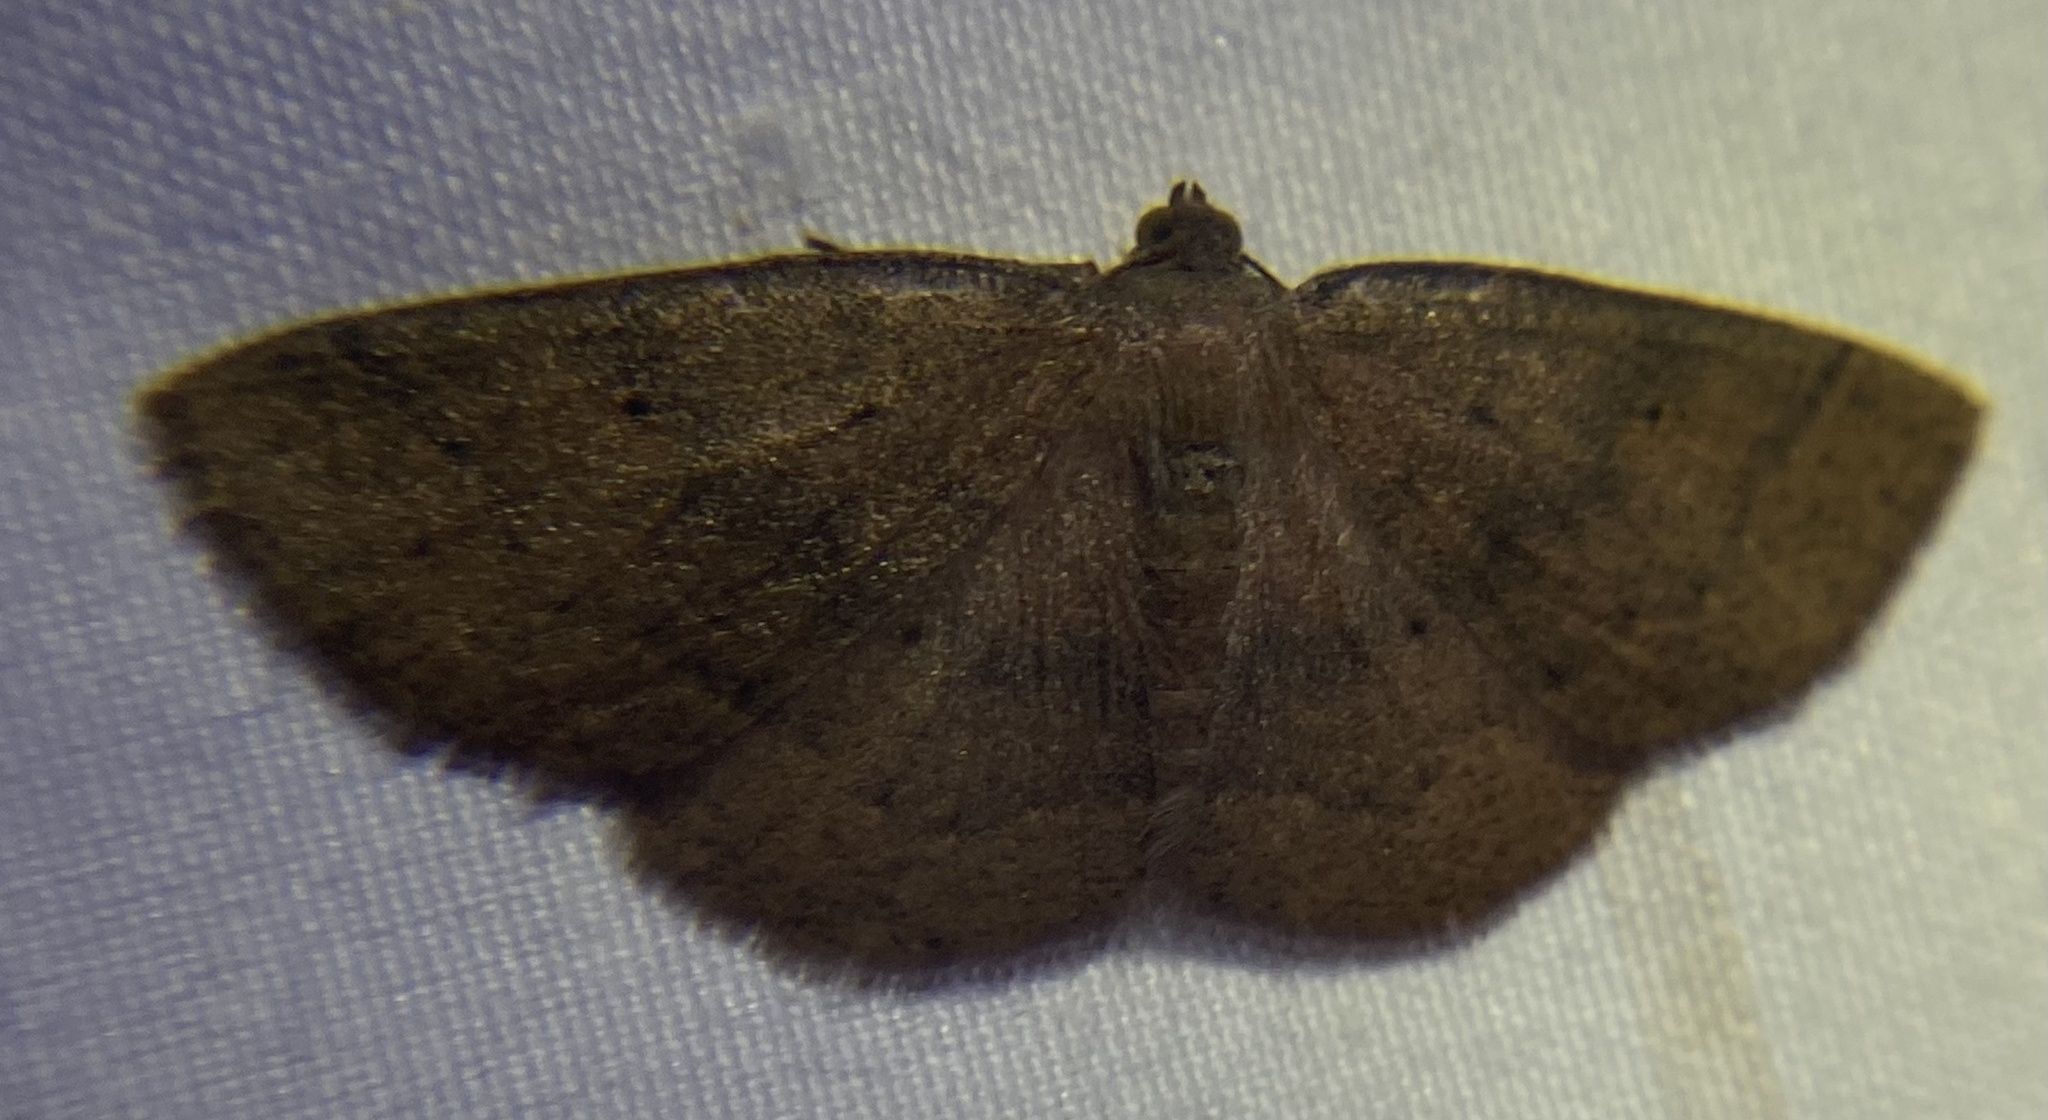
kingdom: Animalia
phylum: Arthropoda
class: Insecta
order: Lepidoptera
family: Geometridae
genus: Ilexia
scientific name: Ilexia intractata
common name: Black-dotted ruddy moth
